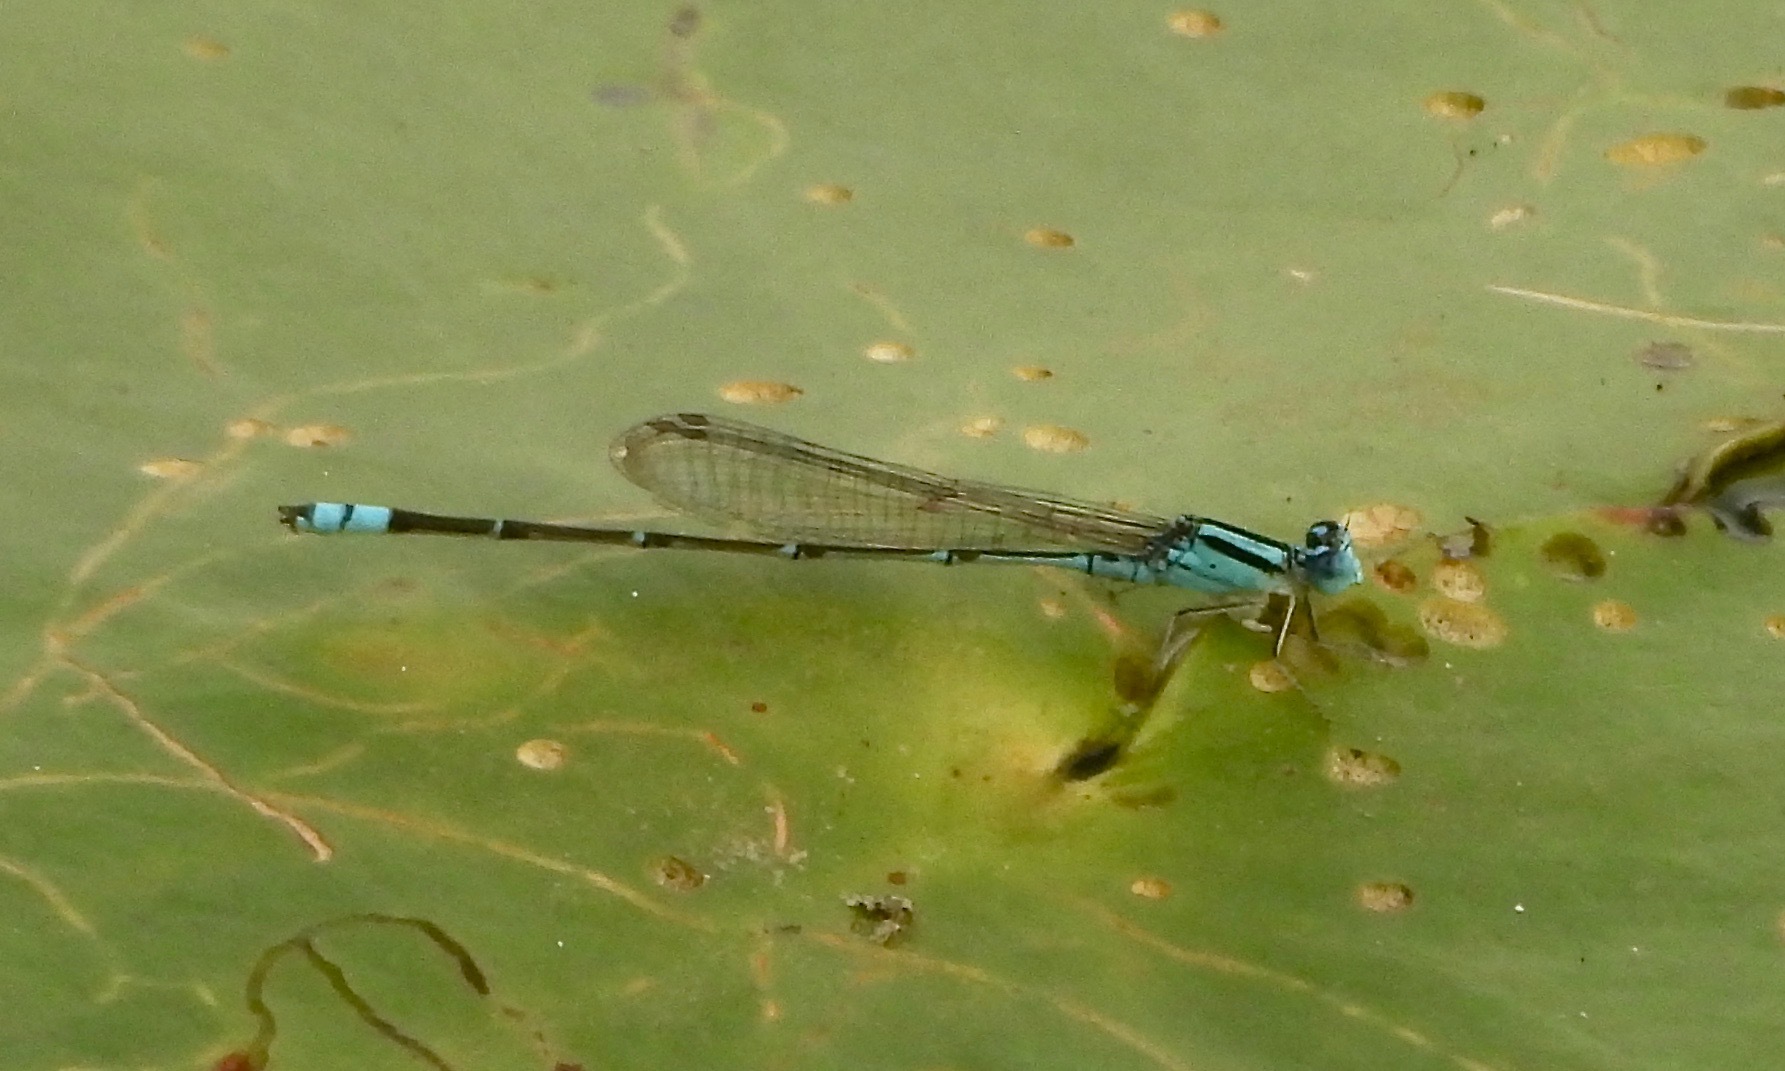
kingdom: Animalia
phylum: Arthropoda
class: Insecta
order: Odonata
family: Coenagrionidae
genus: Pseudagrion
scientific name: Pseudagrion microcephalum
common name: Blue riverdamsel
